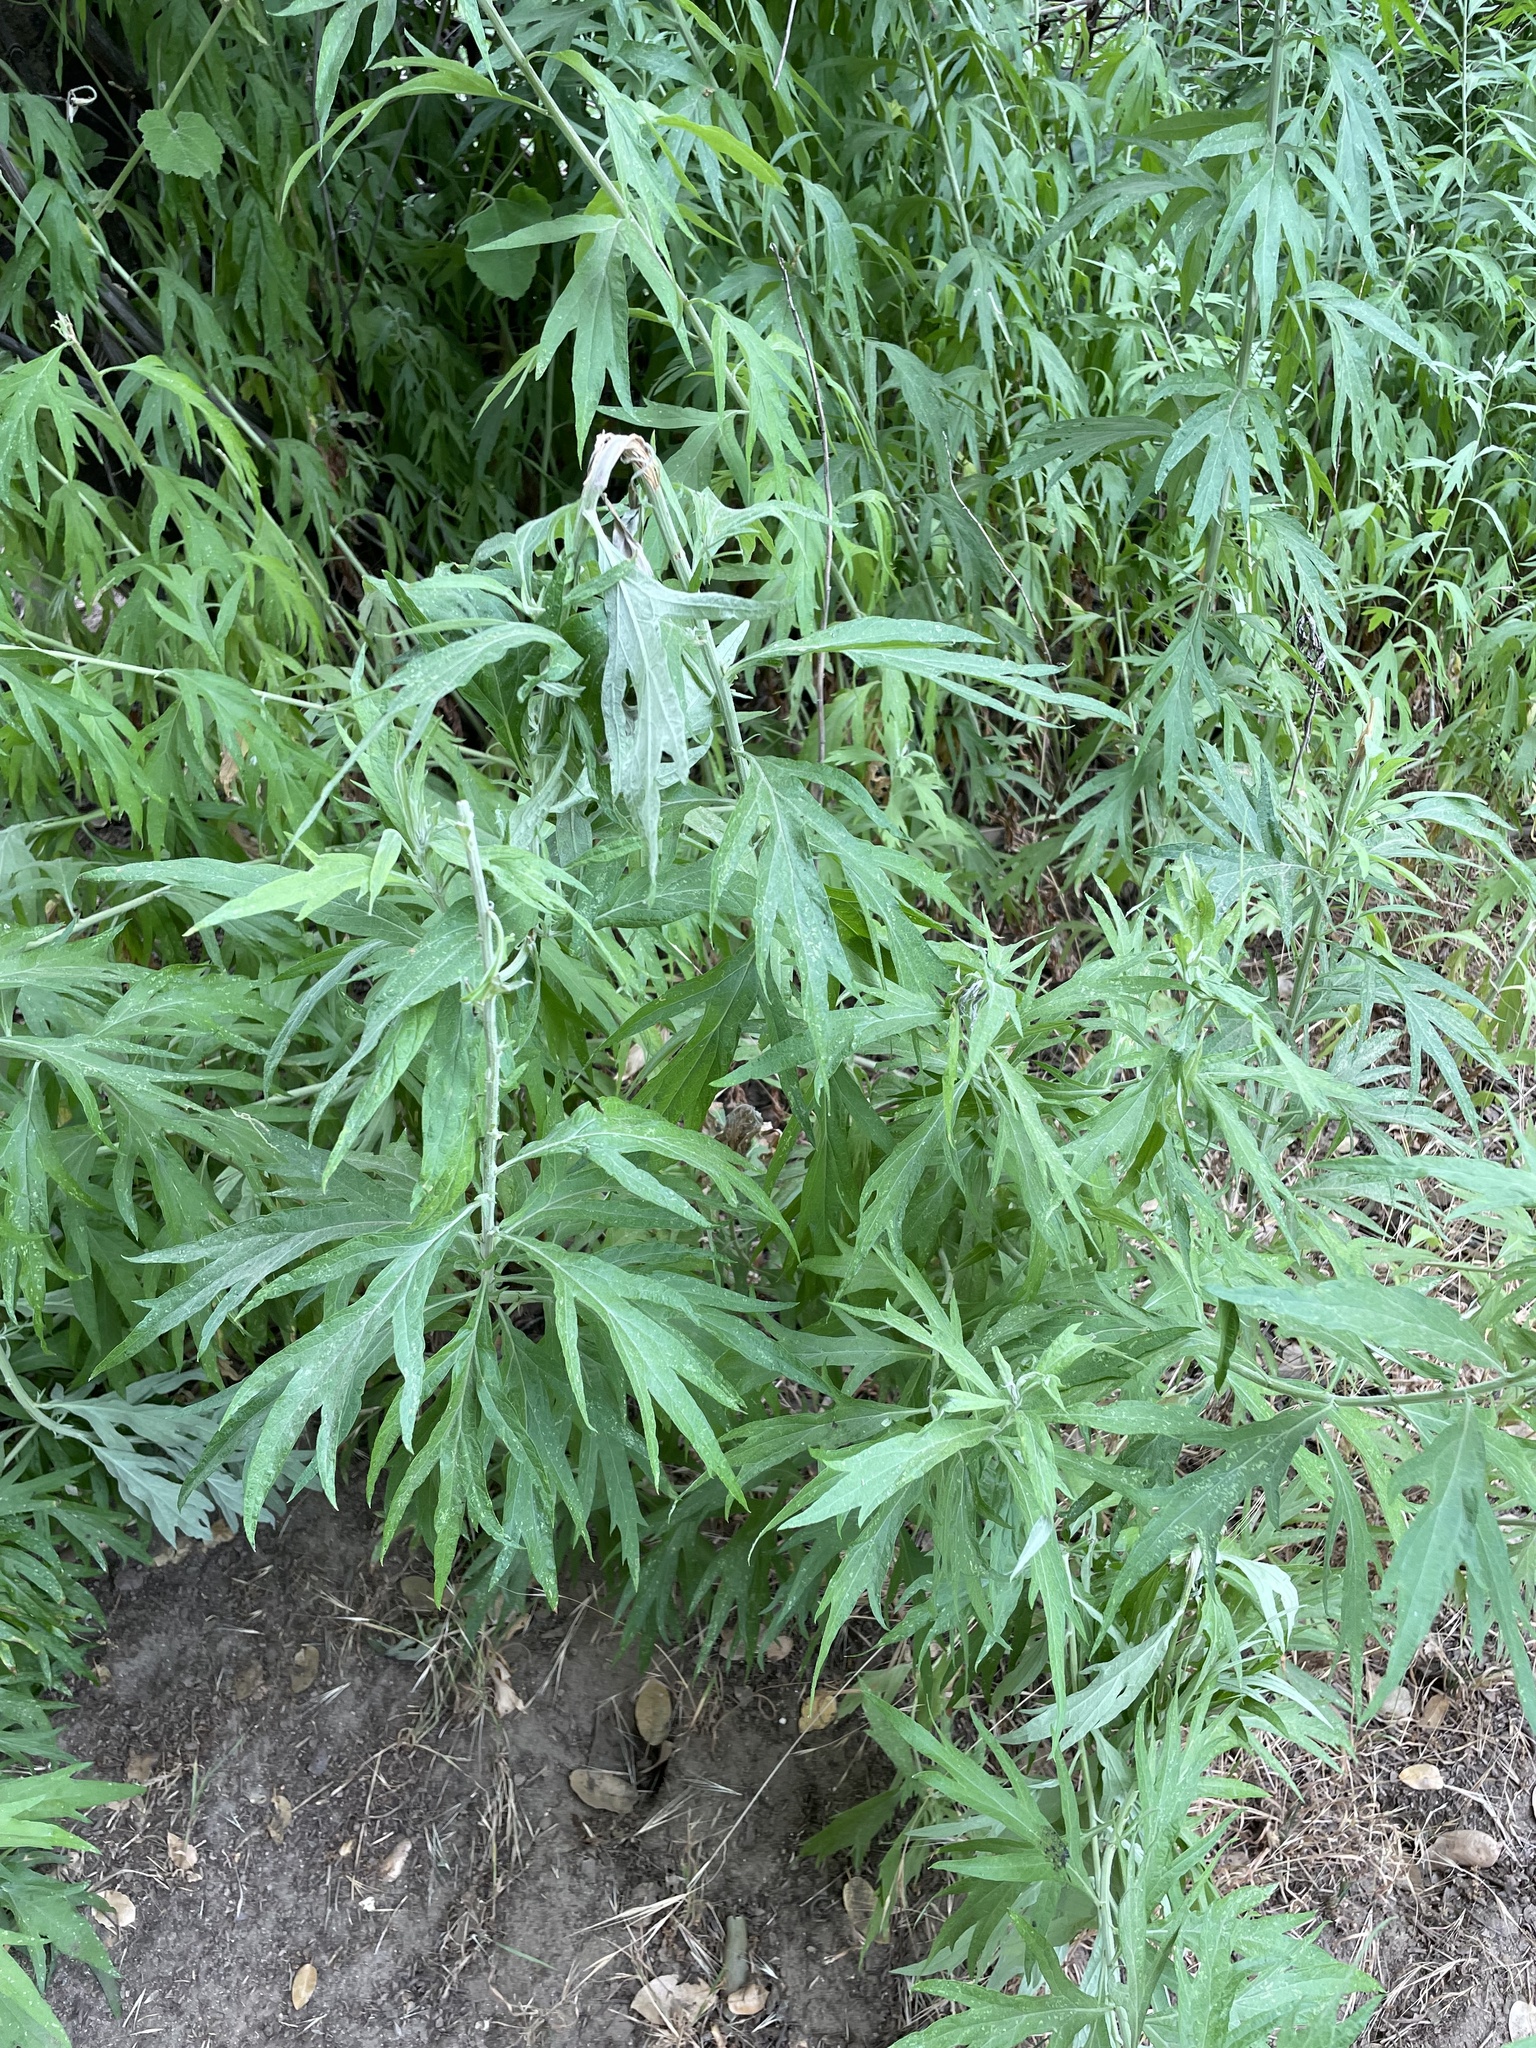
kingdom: Plantae
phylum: Tracheophyta
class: Magnoliopsida
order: Asterales
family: Asteraceae
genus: Artemisia
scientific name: Artemisia douglasiana
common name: Northwest mugwort
